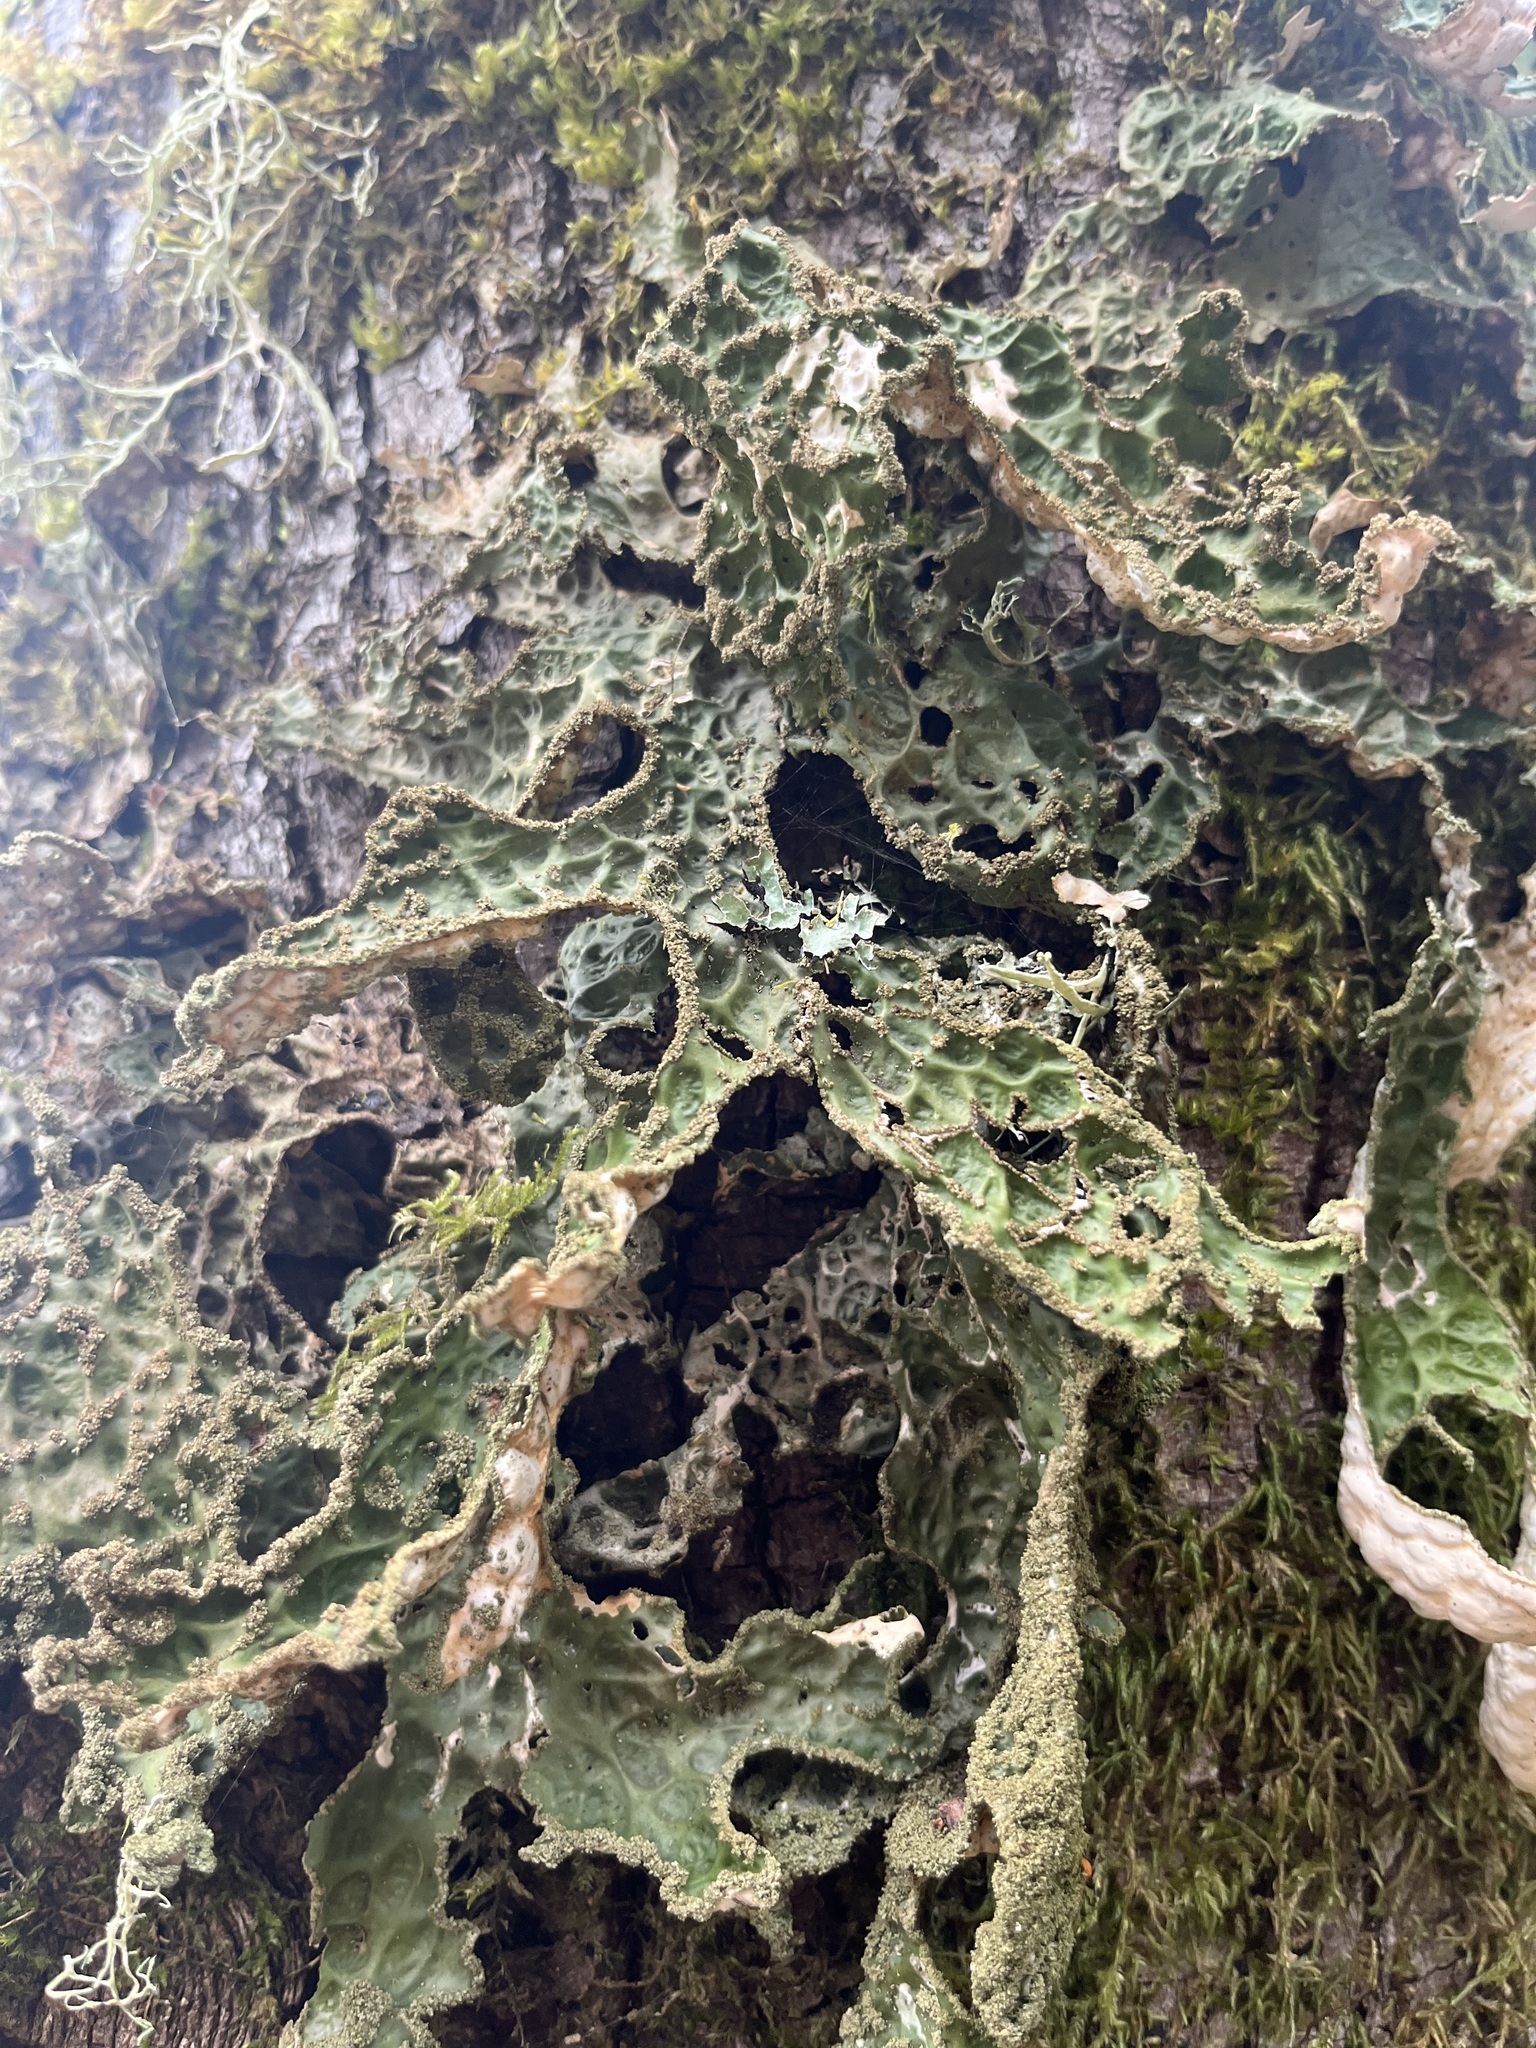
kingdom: Fungi
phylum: Ascomycota
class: Lecanoromycetes
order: Peltigerales
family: Lobariaceae
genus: Lobaria
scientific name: Lobaria pulmonaria
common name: Lungwort
